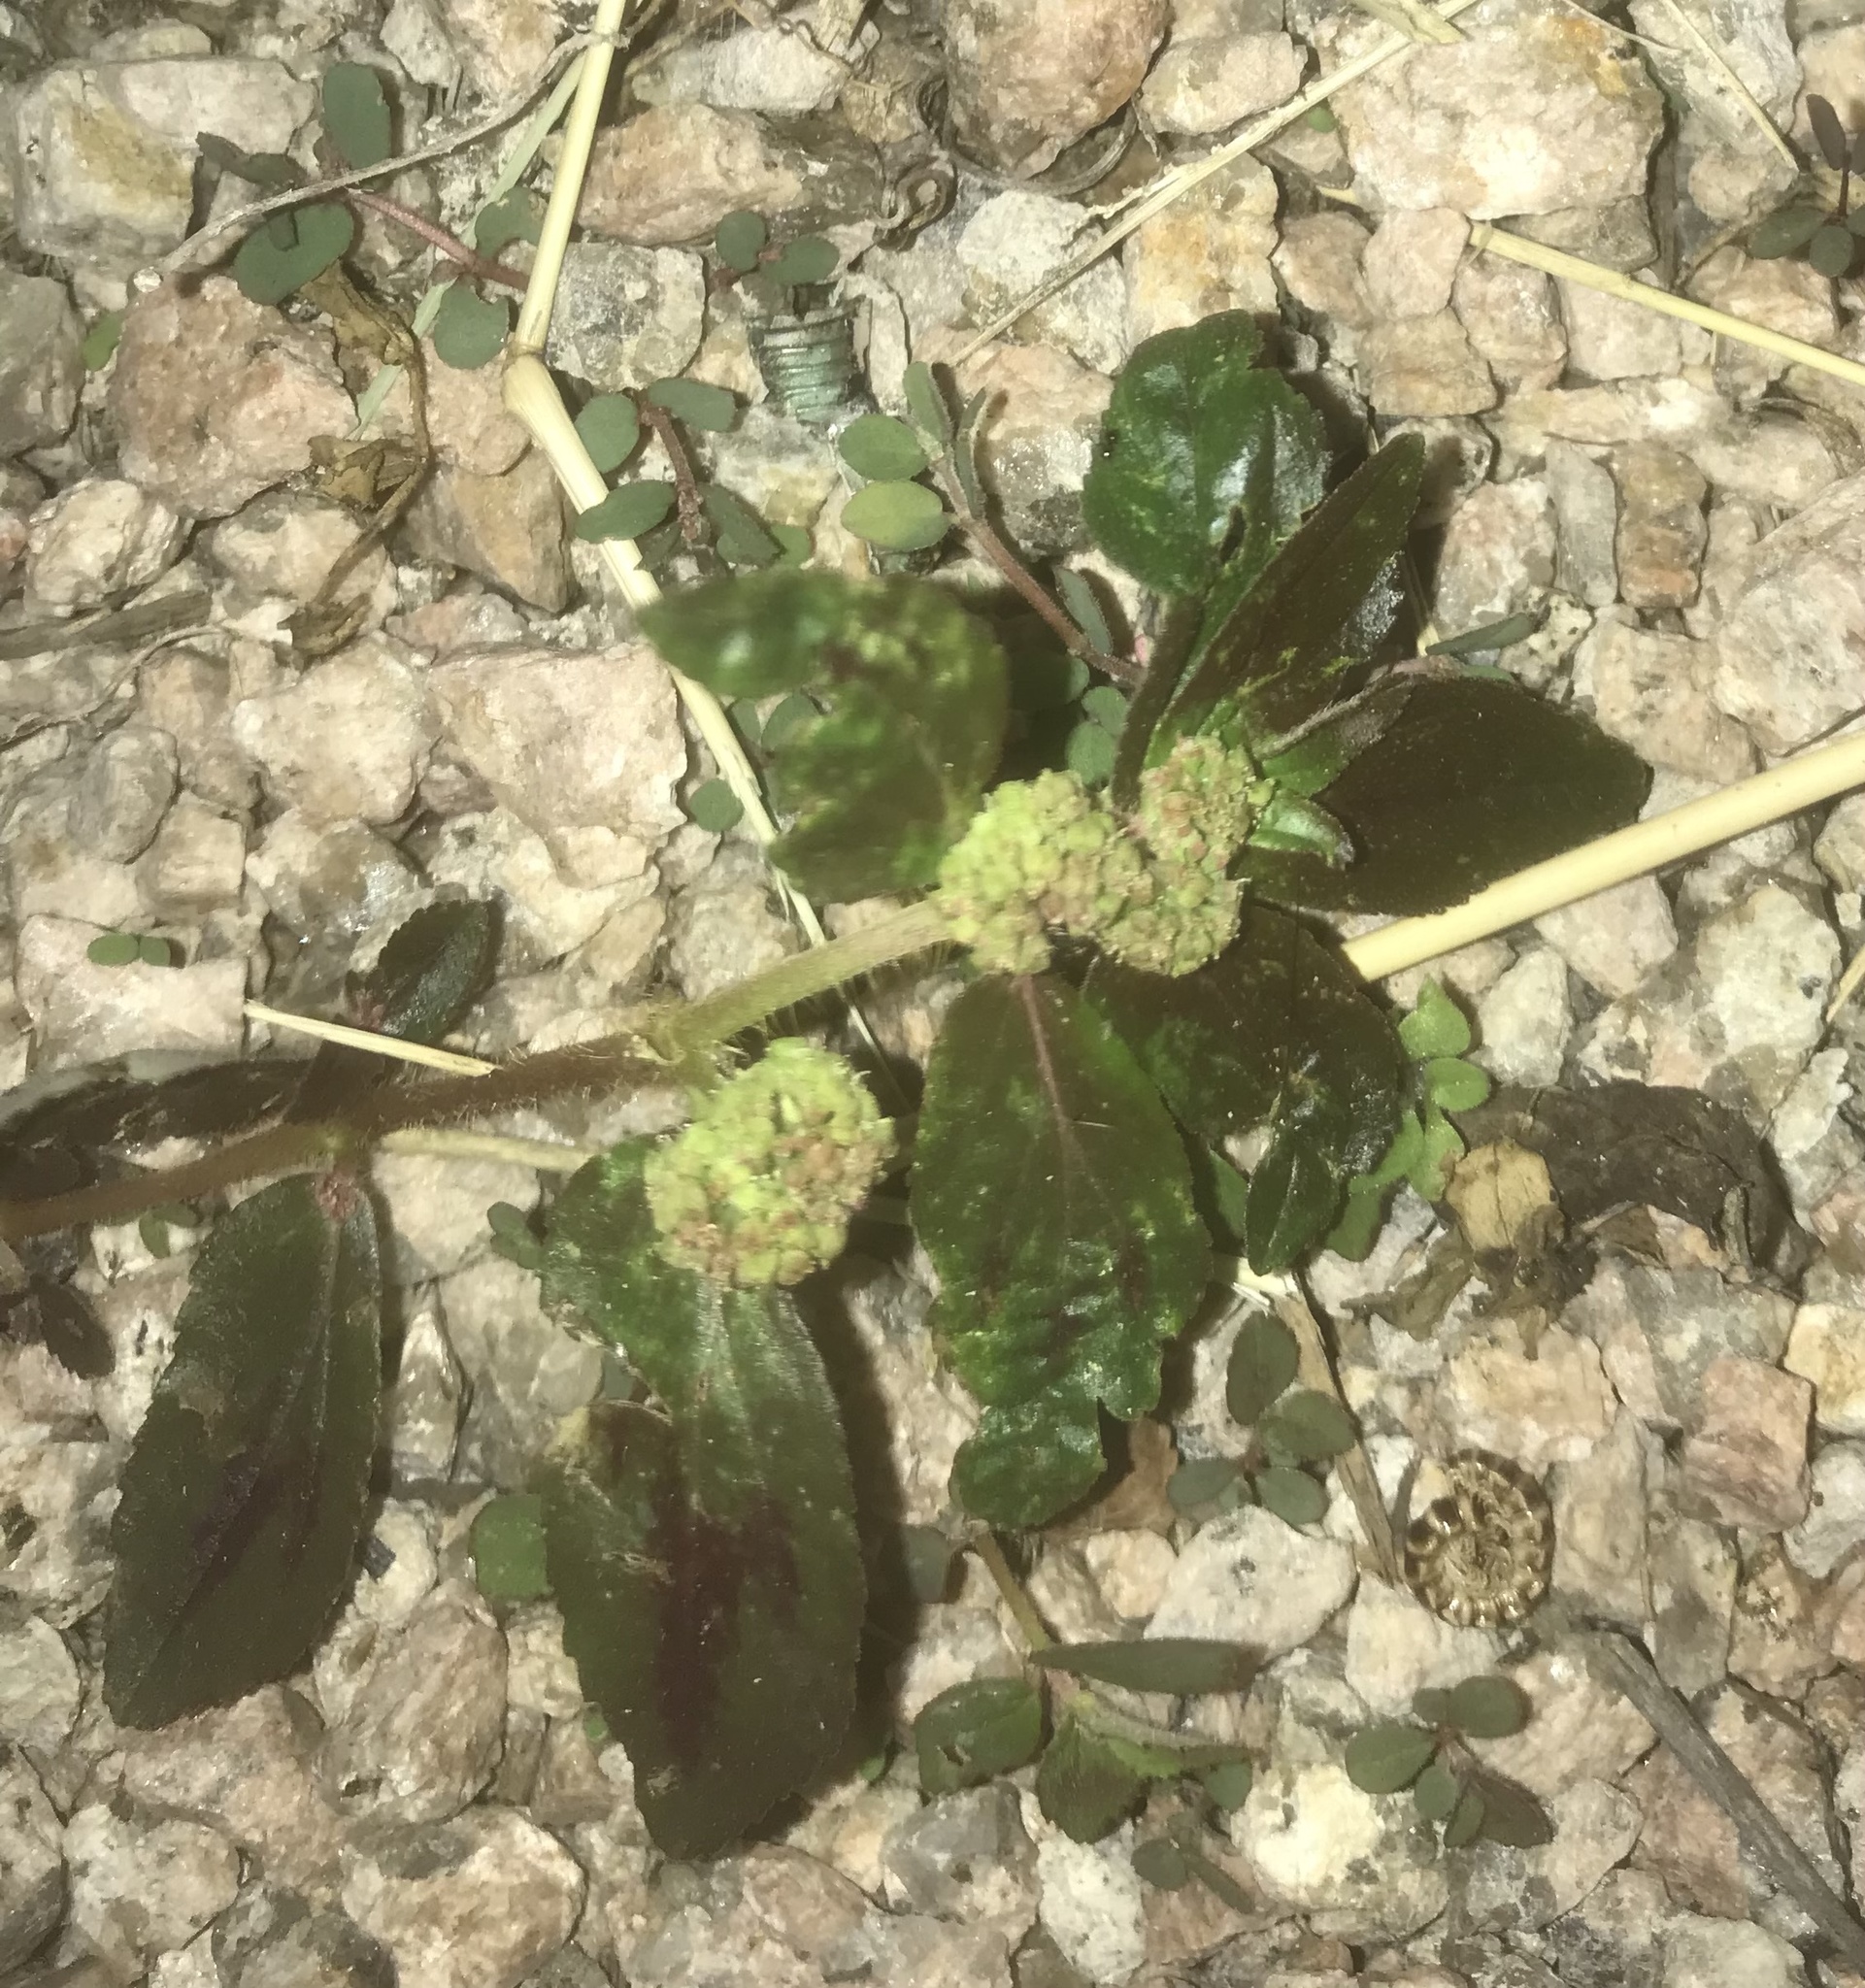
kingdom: Plantae
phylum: Tracheophyta
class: Magnoliopsida
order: Malpighiales
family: Euphorbiaceae
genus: Euphorbia
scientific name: Euphorbia hirta
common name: Pillpod sandmat
